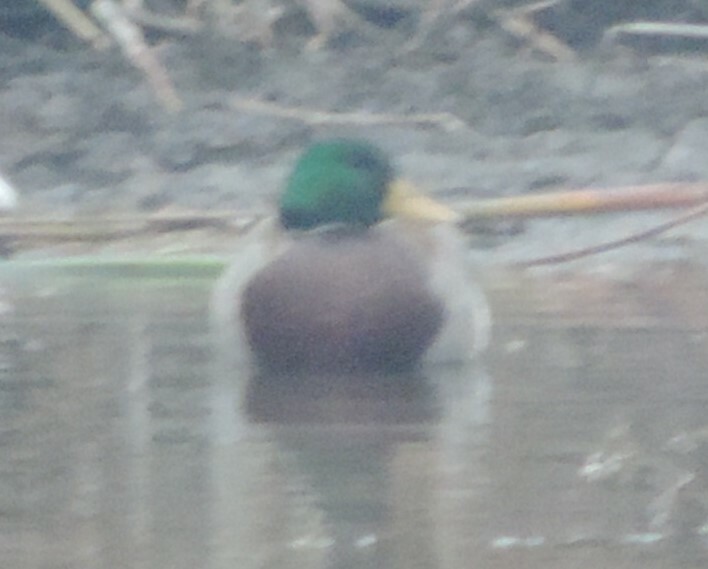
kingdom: Animalia
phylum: Chordata
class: Aves
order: Anseriformes
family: Anatidae
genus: Anas
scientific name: Anas platyrhynchos
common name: Mallard
